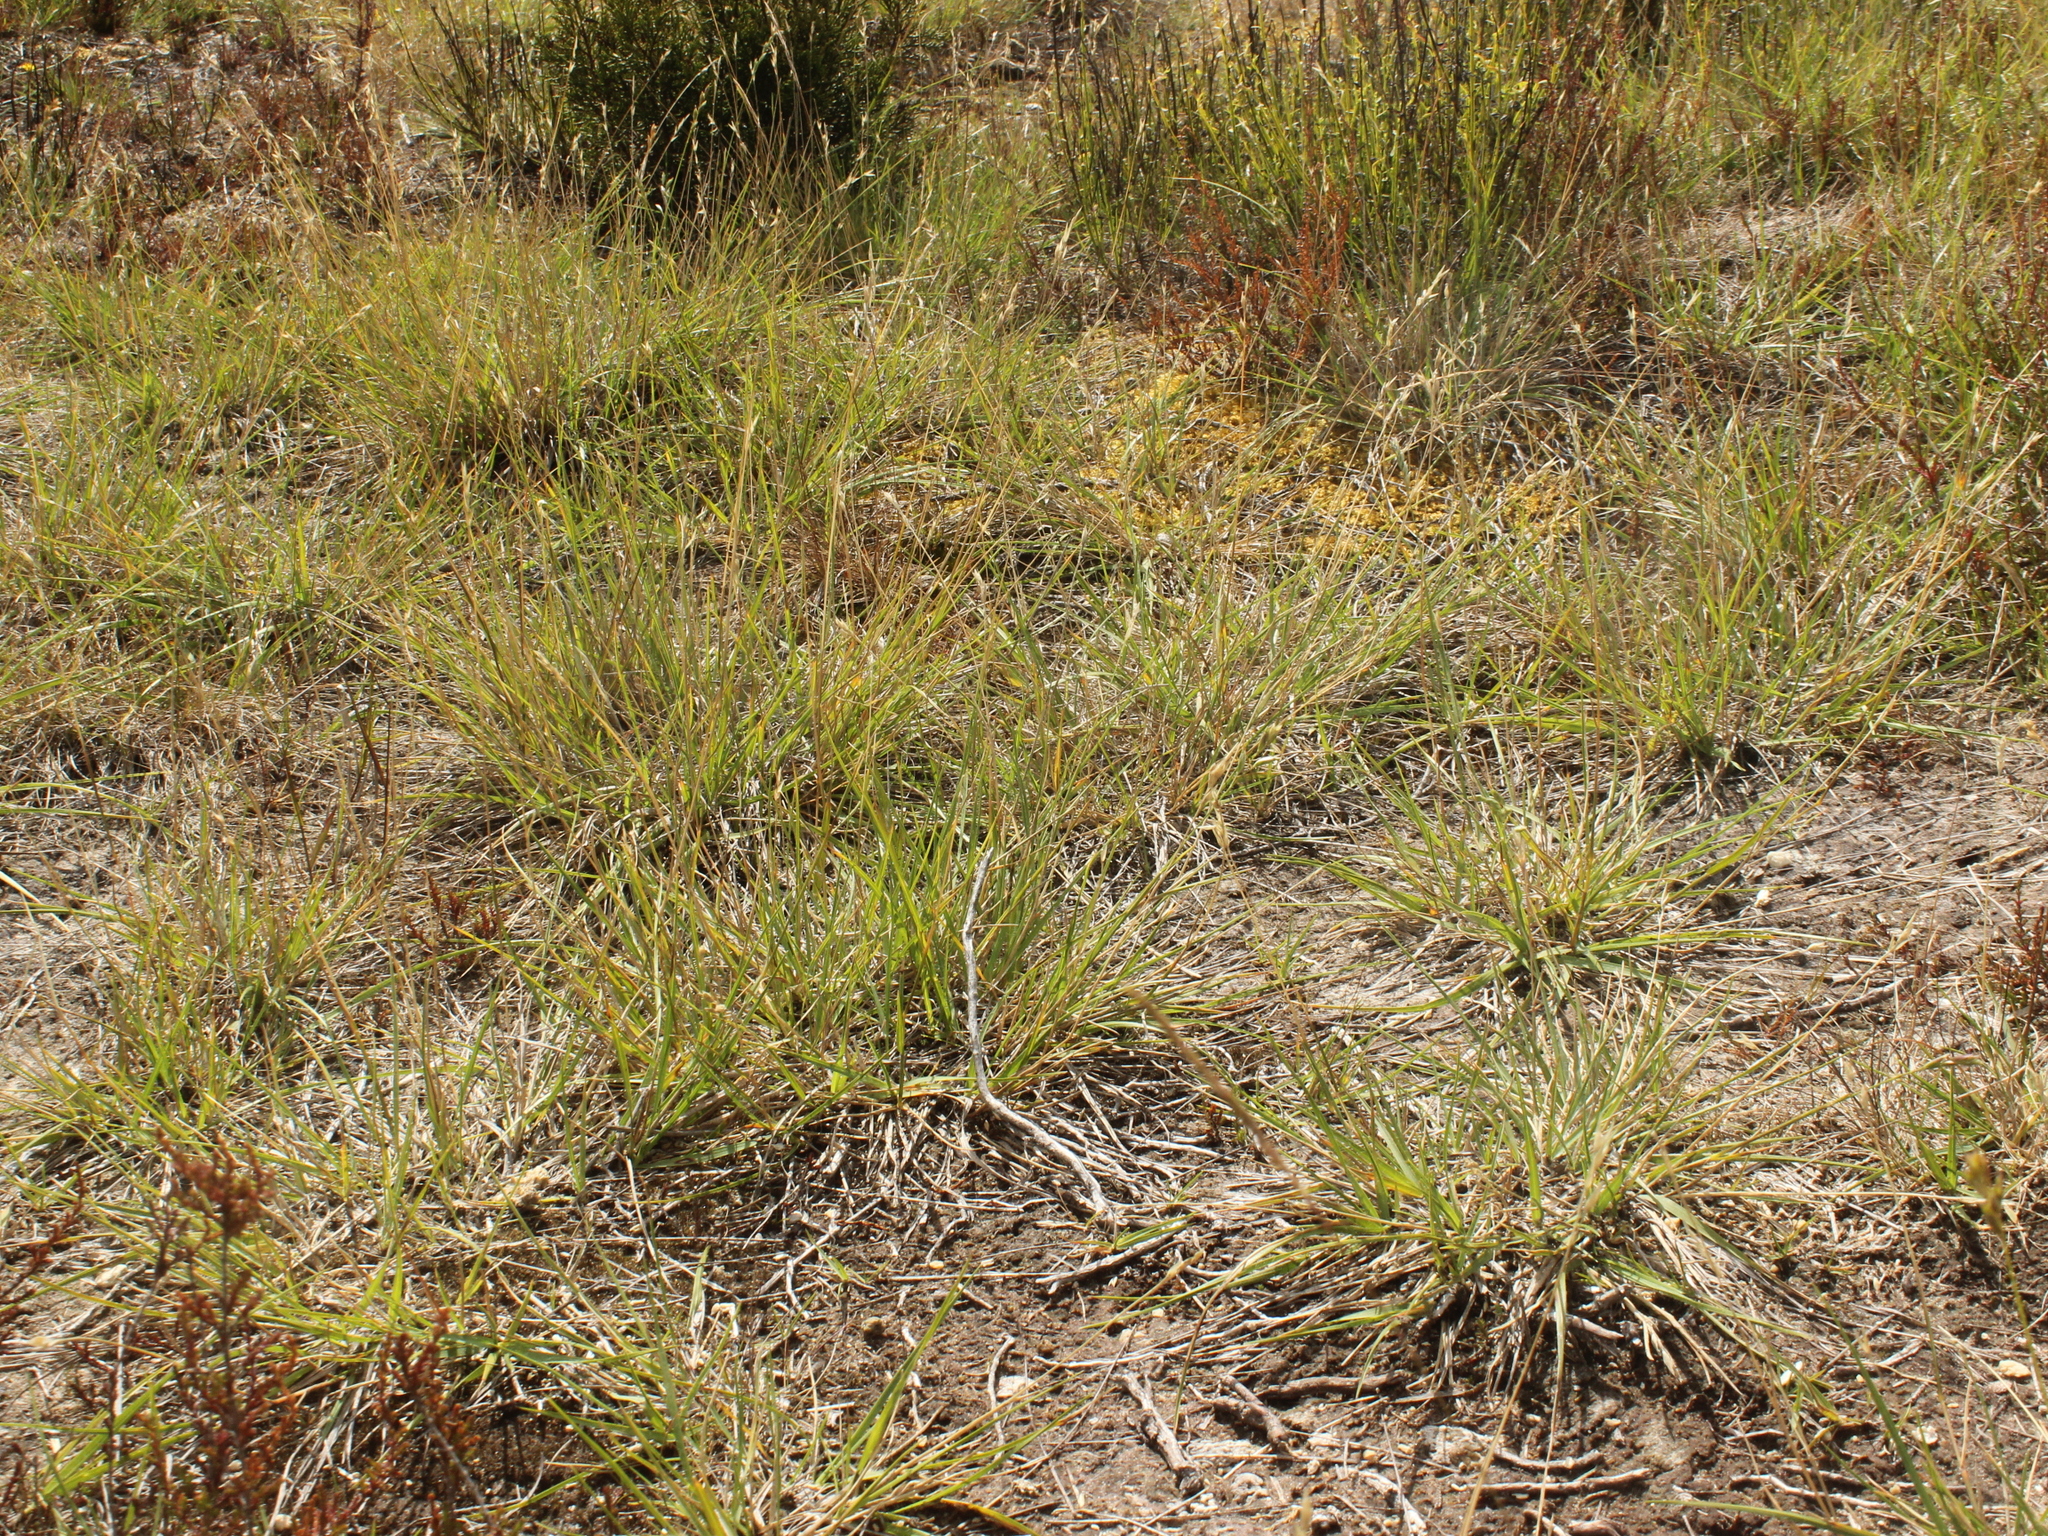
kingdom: Plantae
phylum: Tracheophyta
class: Liliopsida
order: Poales
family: Poaceae
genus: Danthonia
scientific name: Danthonia decumbens
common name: Common heathgrass
